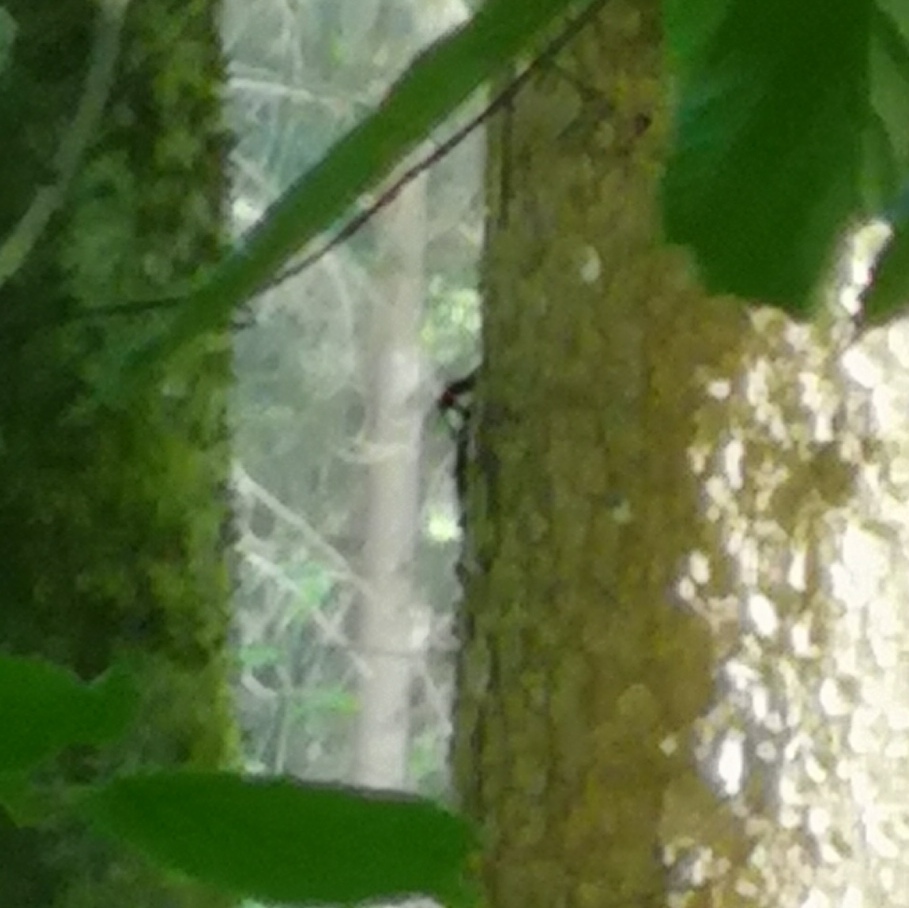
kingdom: Animalia
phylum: Chordata
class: Aves
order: Piciformes
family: Picidae
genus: Dendrocopos
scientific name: Dendrocopos major
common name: Great spotted woodpecker
